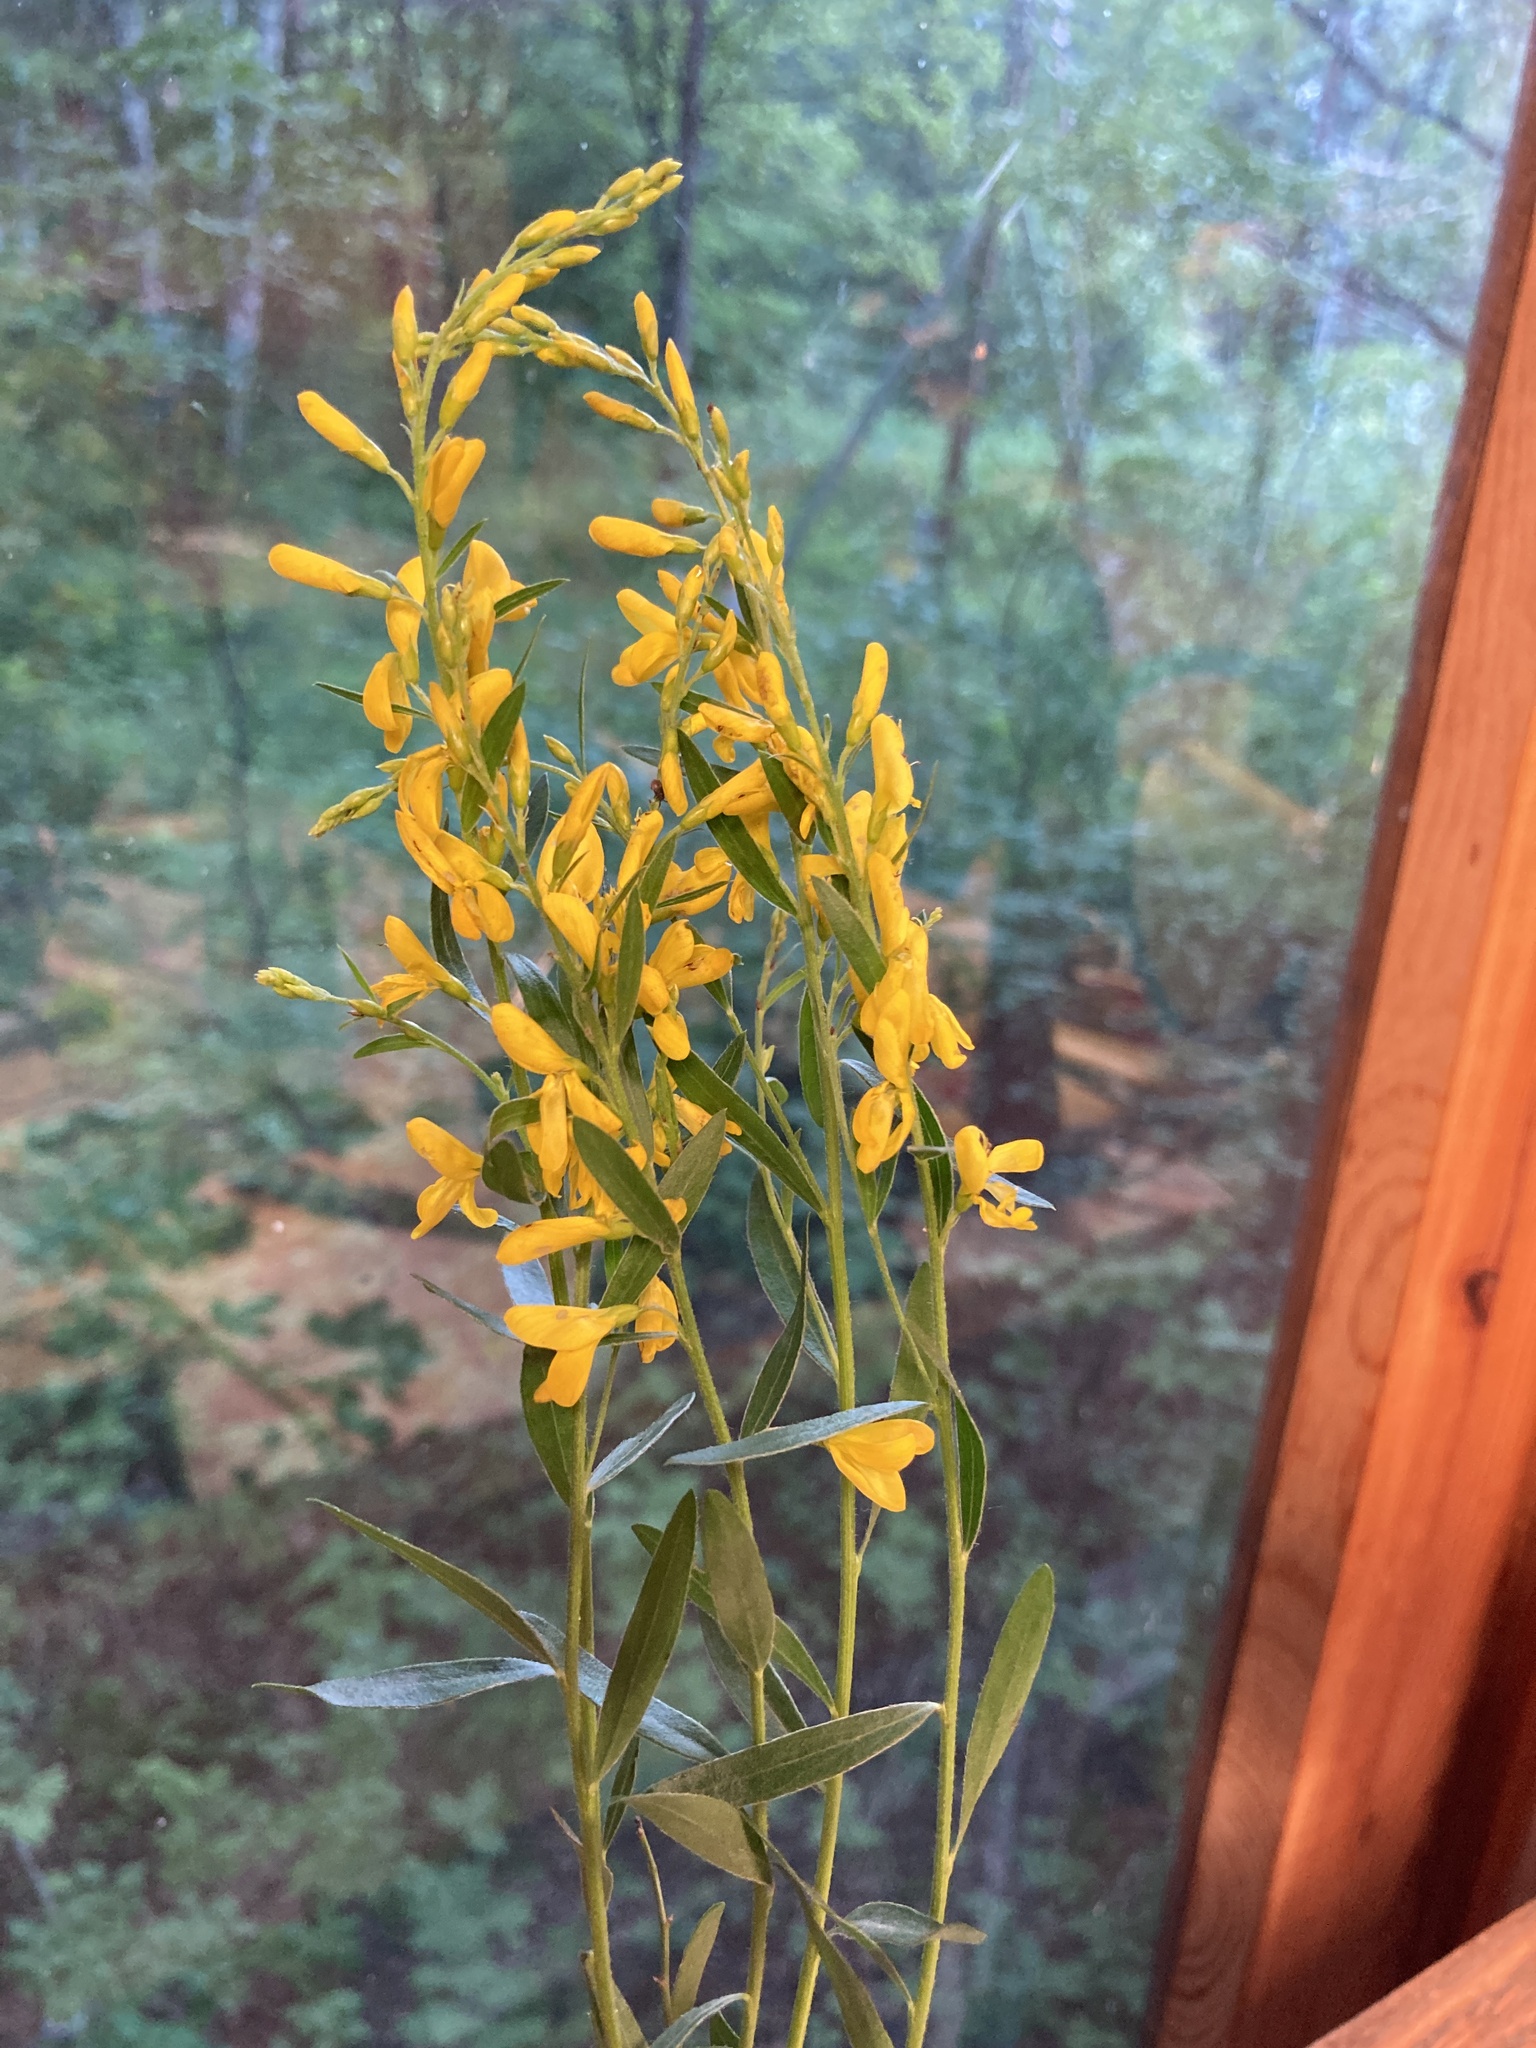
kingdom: Plantae
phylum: Tracheophyta
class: Magnoliopsida
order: Fabales
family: Fabaceae
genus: Genista
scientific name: Genista tinctoria
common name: Dyer's greenweed
